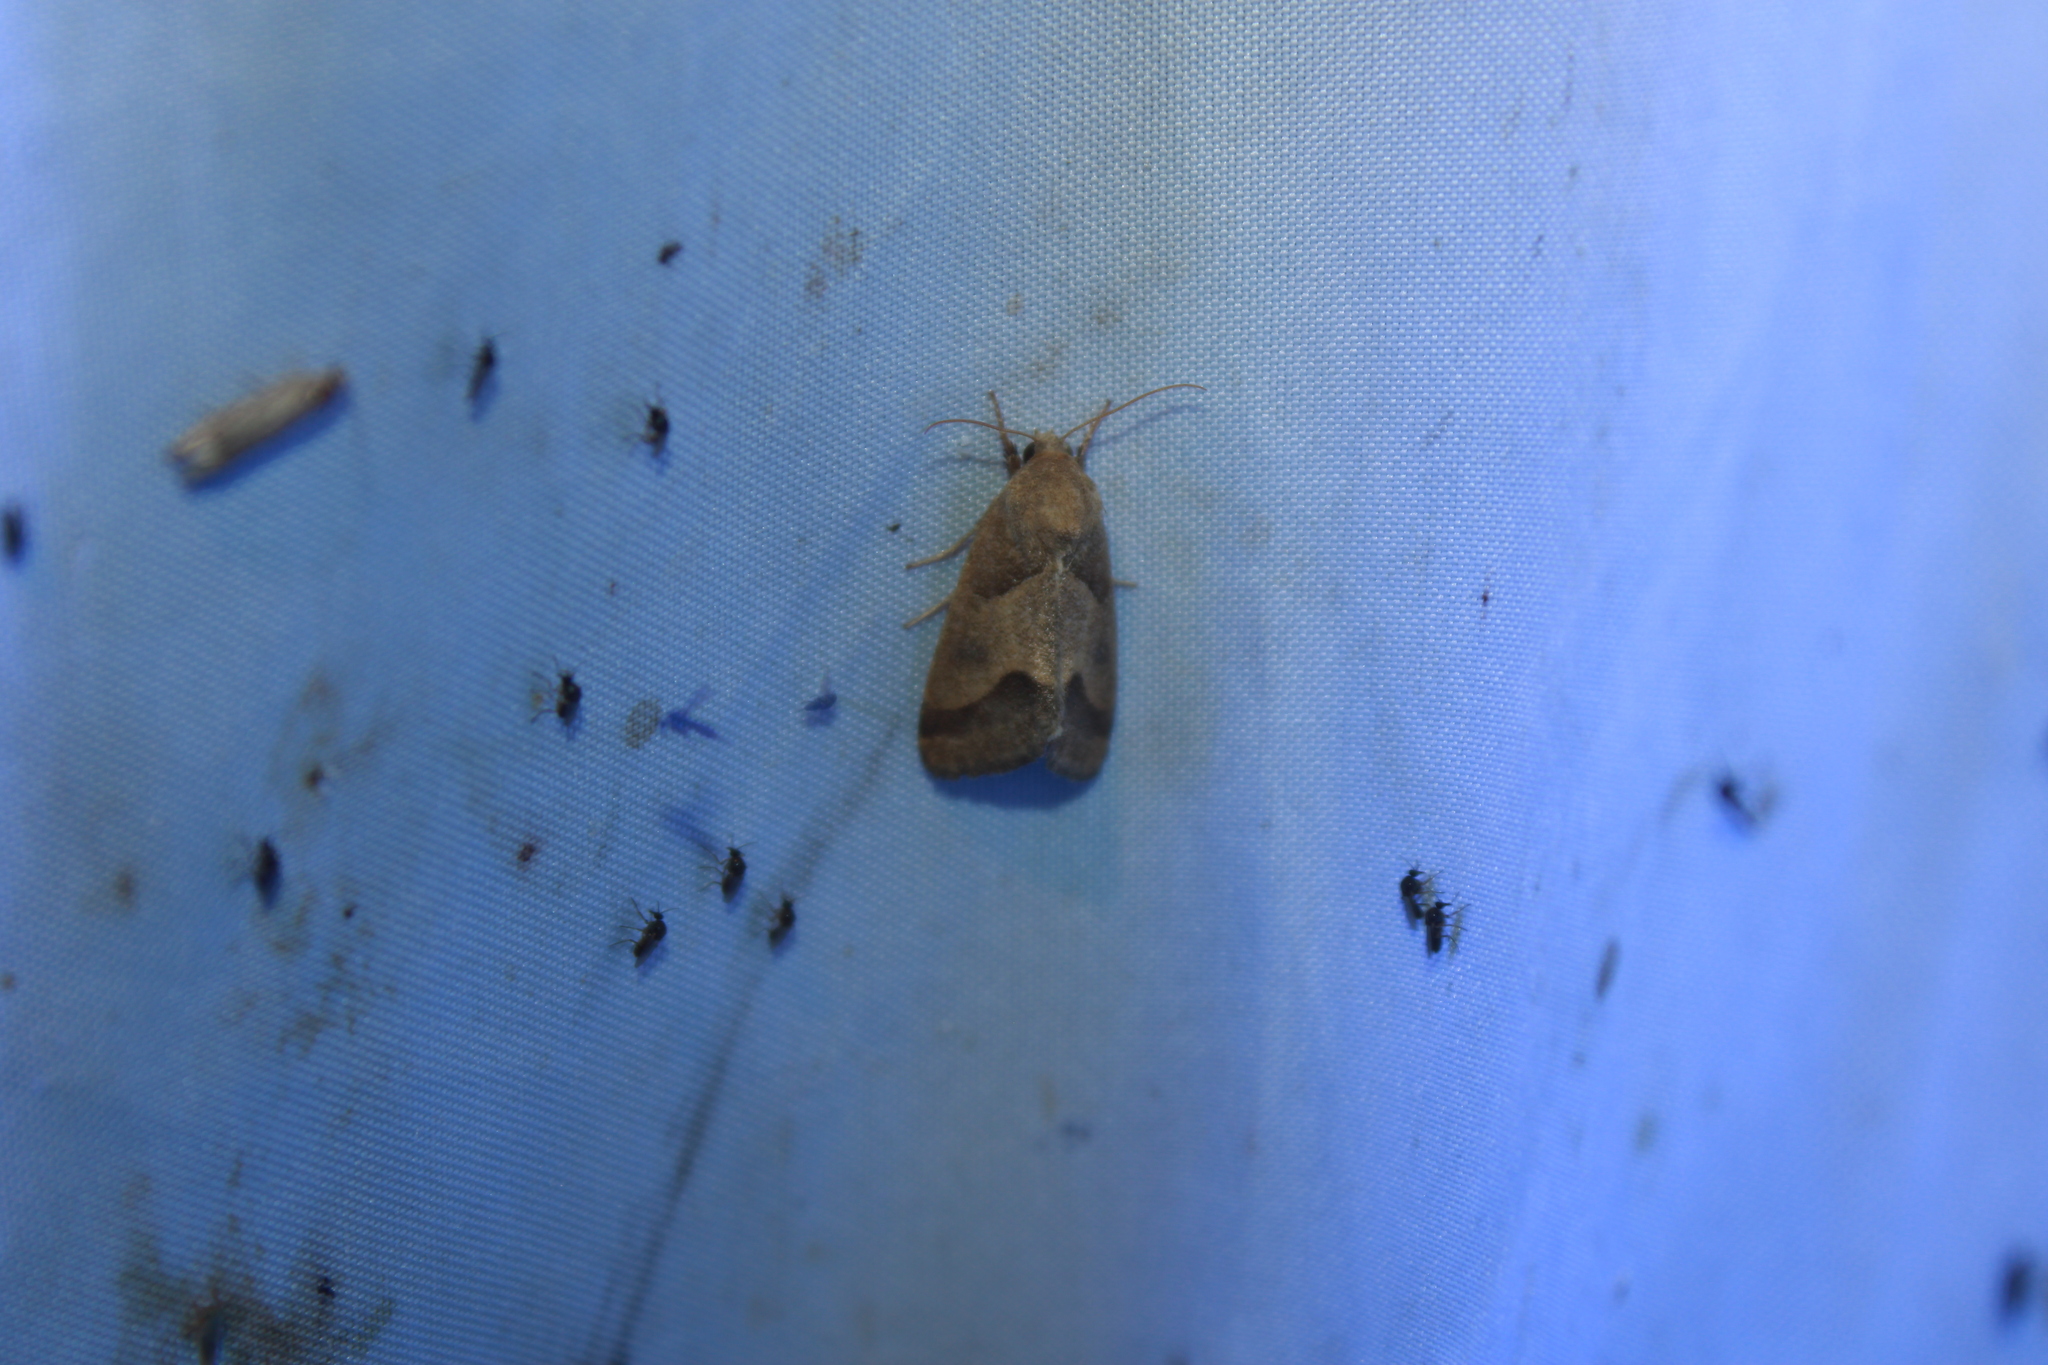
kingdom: Animalia
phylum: Arthropoda
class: Insecta
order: Lepidoptera
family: Noctuidae
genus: Schinia
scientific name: Schinia gracilenta
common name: Slender flower moth
